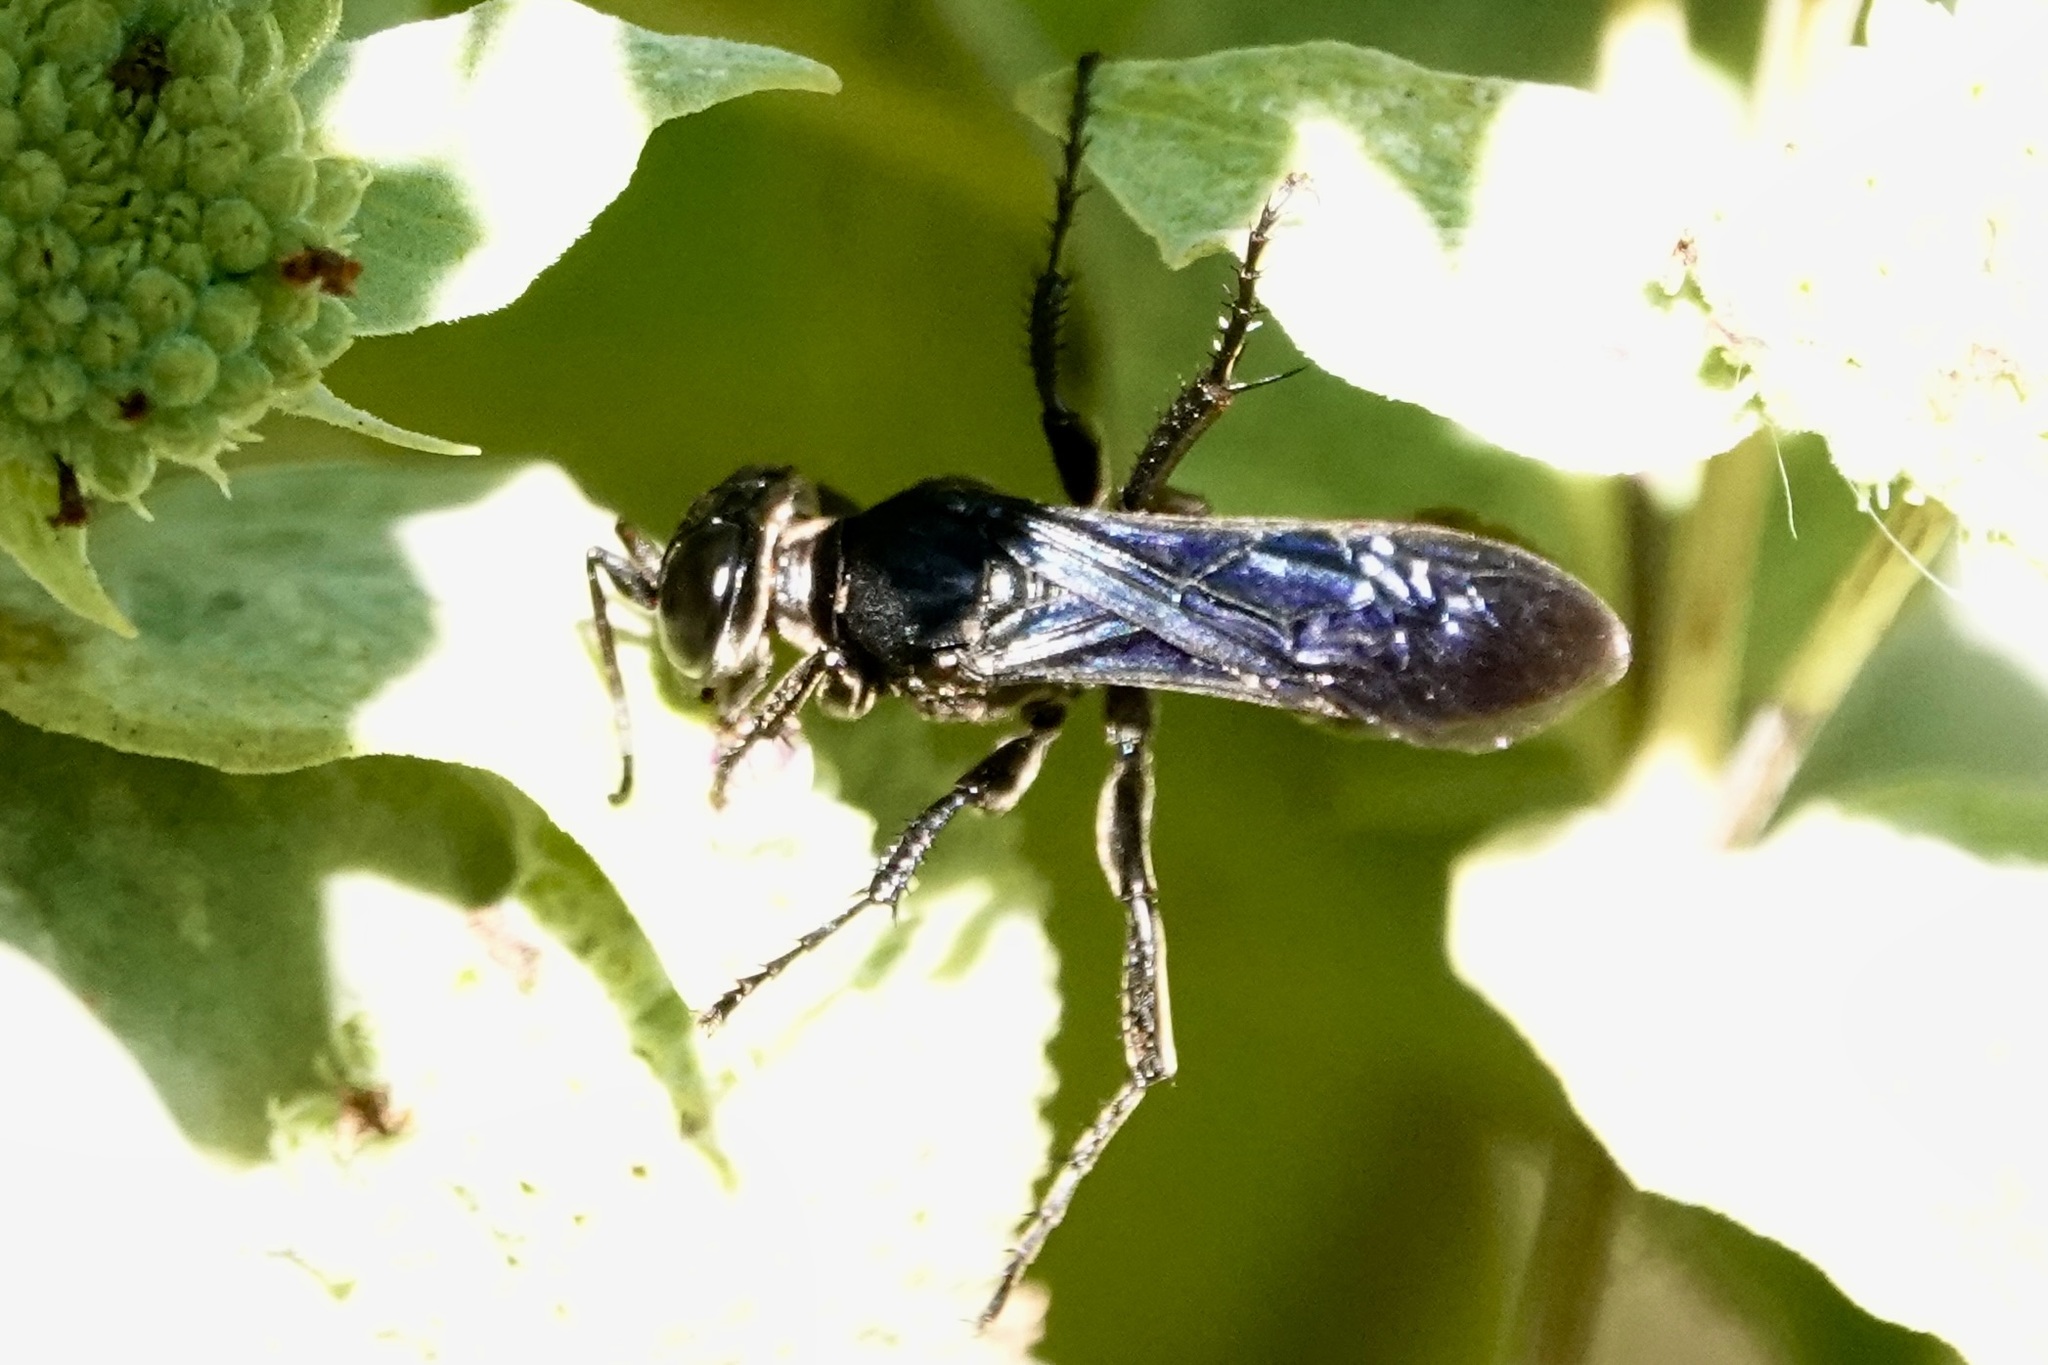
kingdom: Animalia
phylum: Arthropoda
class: Insecta
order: Hymenoptera
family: Crabronidae
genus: Larra
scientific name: Larra analis
